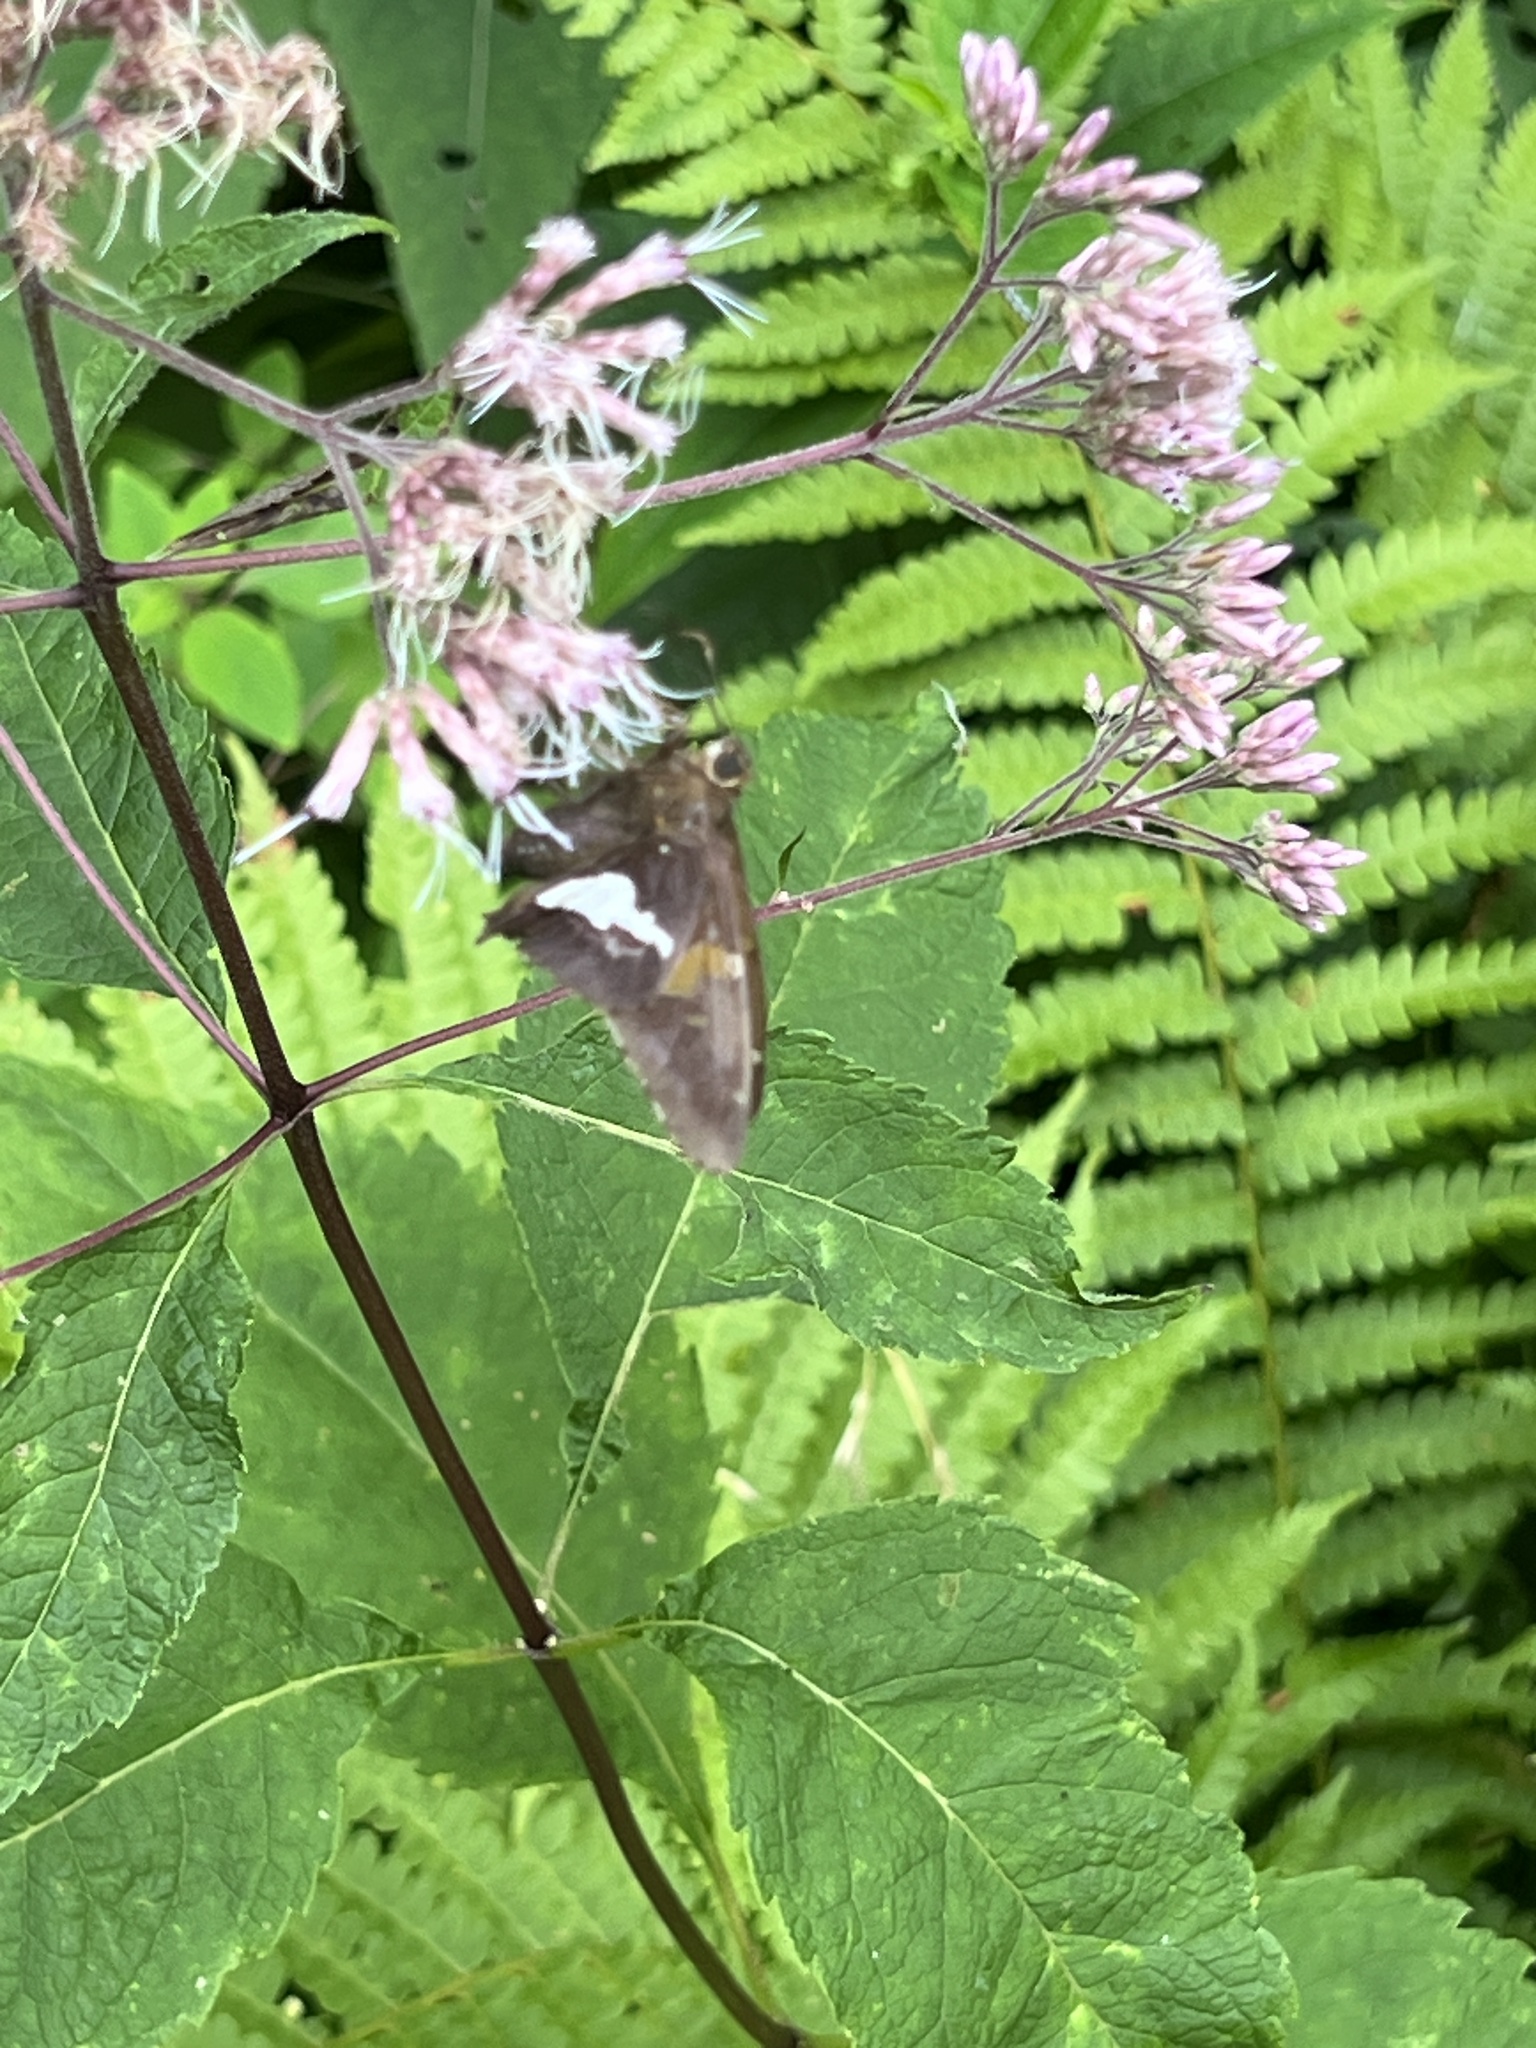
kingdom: Animalia
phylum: Arthropoda
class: Insecta
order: Lepidoptera
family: Hesperiidae
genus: Epargyreus
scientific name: Epargyreus clarus
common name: Silver-spotted skipper
